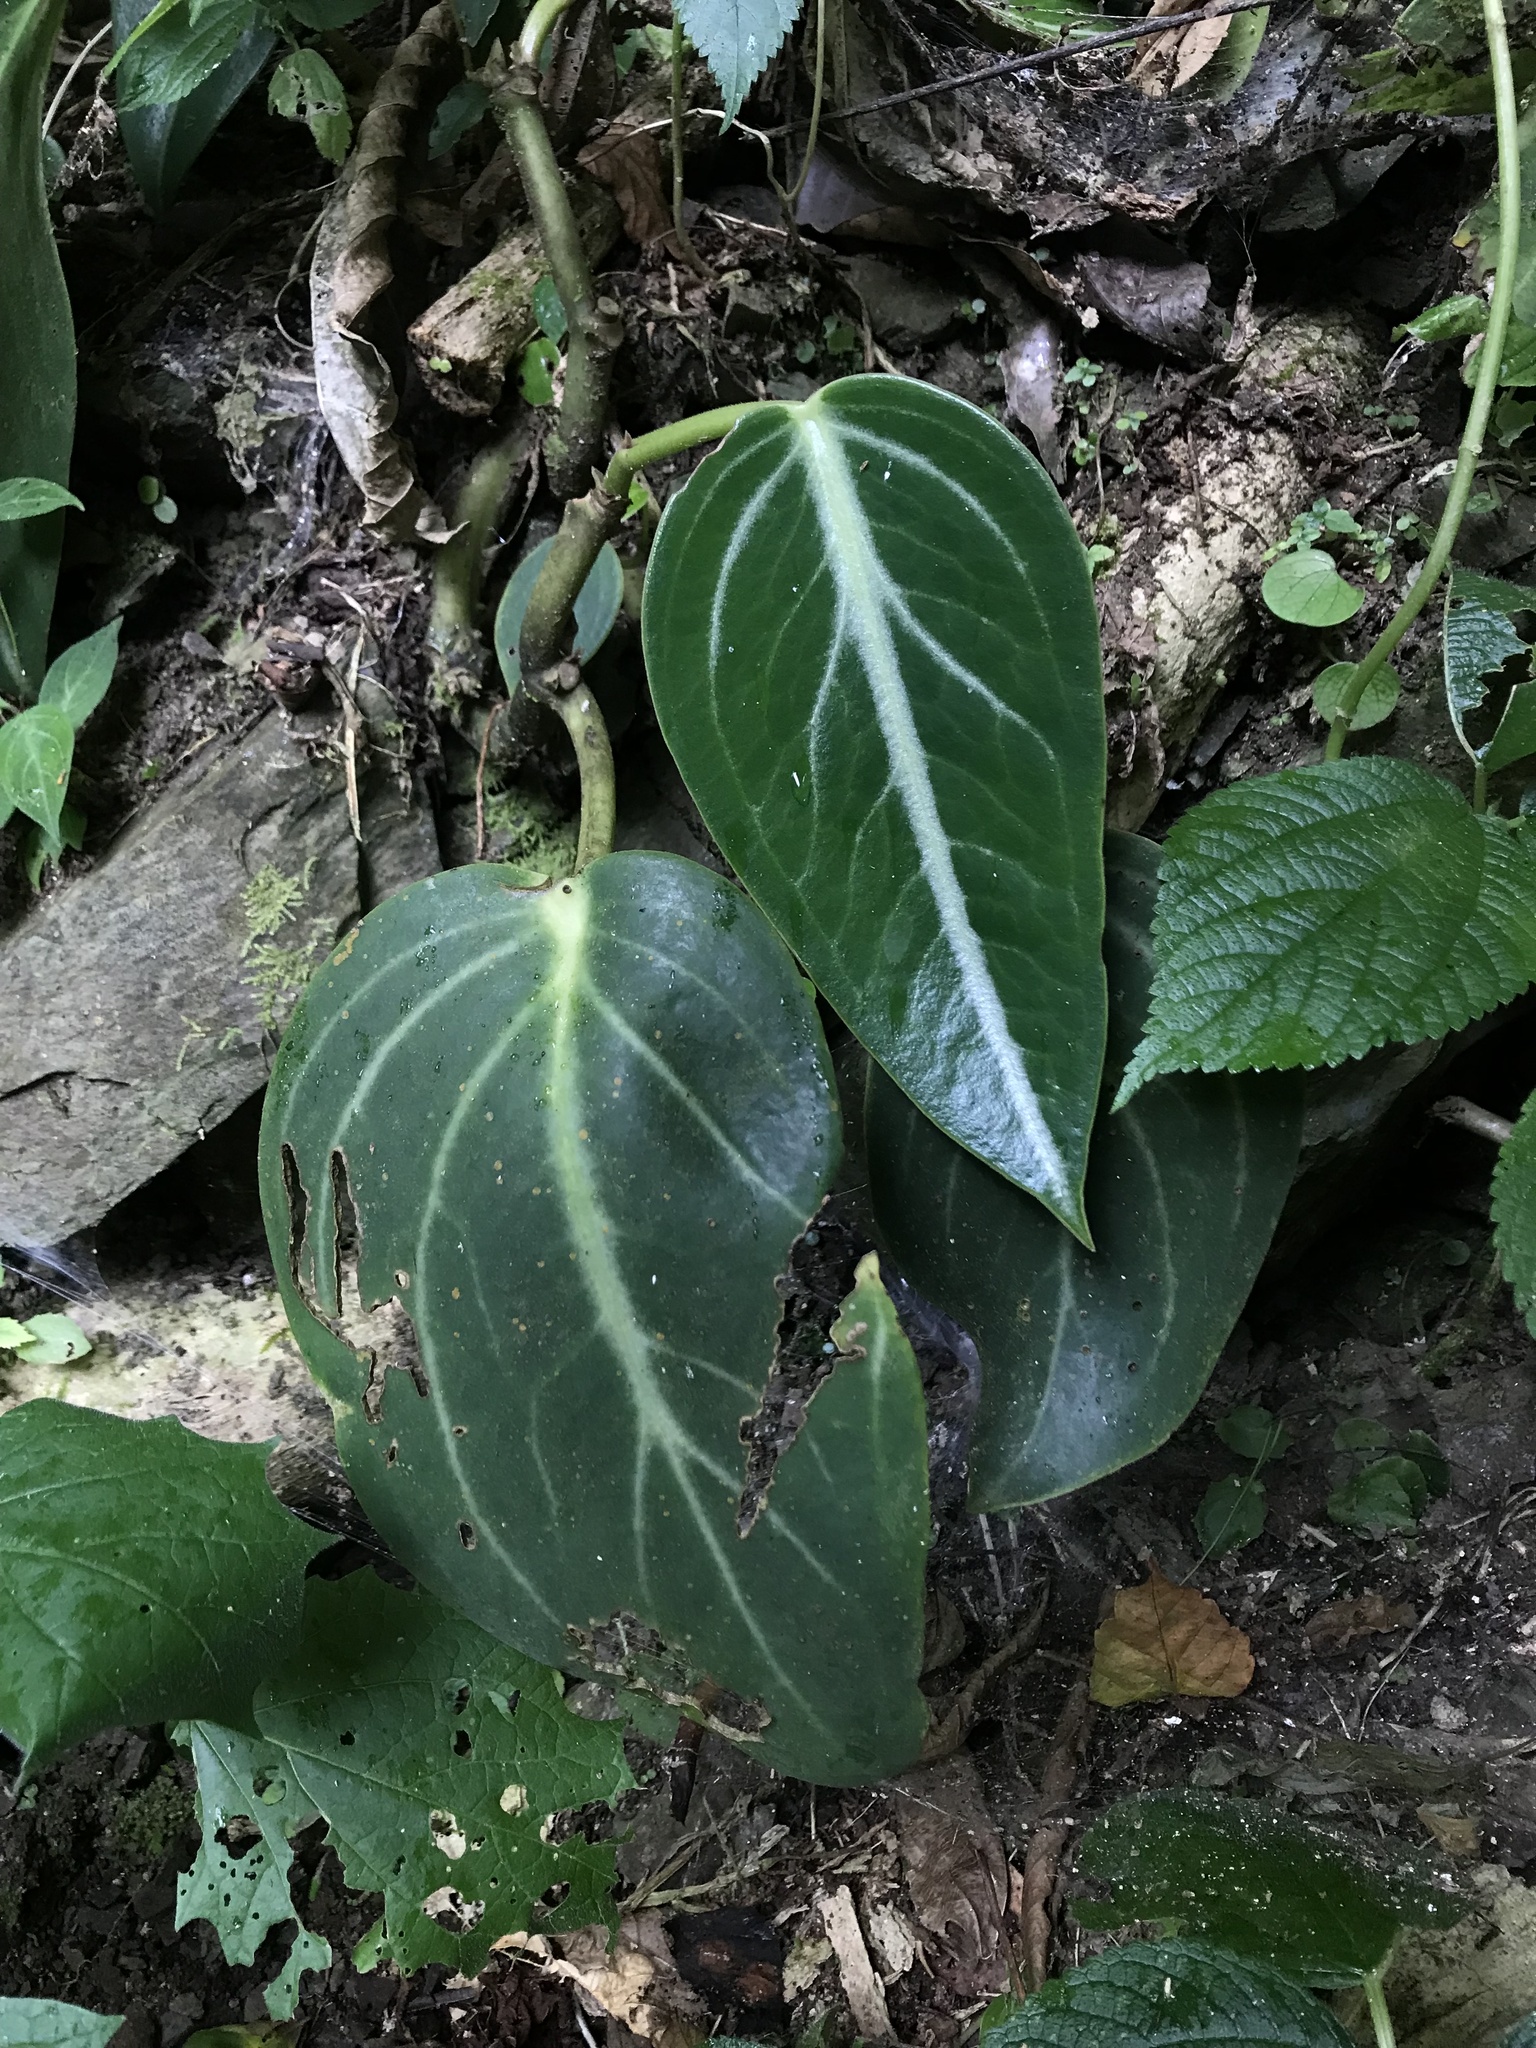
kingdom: Plantae
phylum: Tracheophyta
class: Magnoliopsida
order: Piperales
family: Piperaceae
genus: Peperomia
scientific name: Peperomia maculosa
